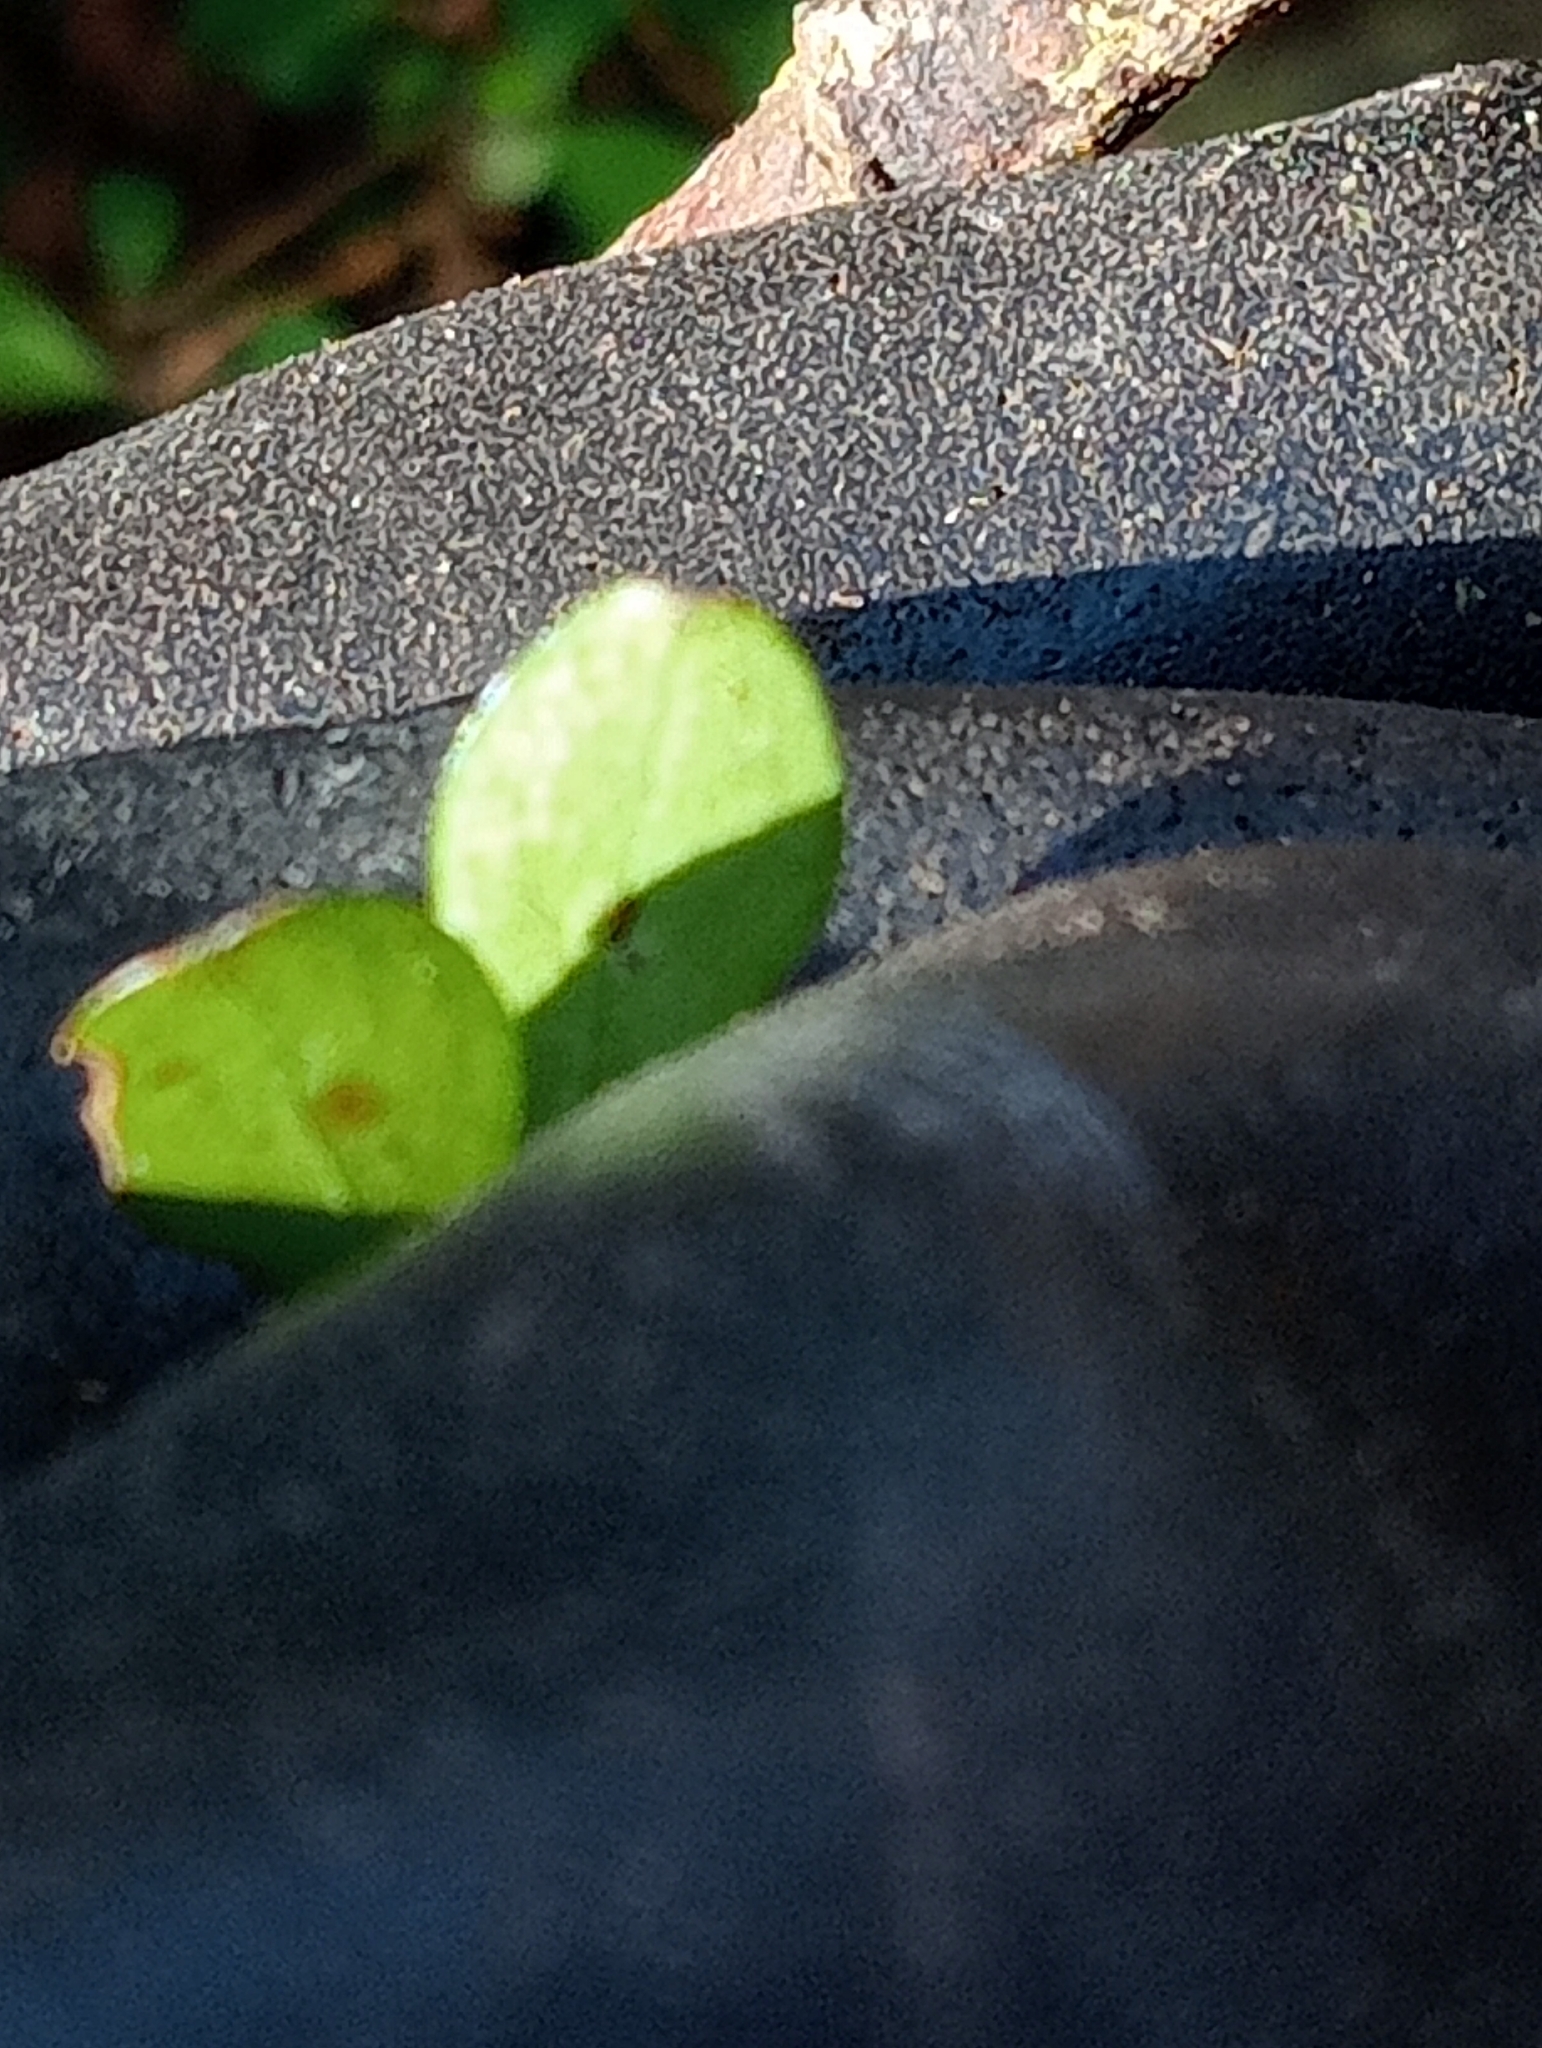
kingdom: Plantae
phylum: Tracheophyta
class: Magnoliopsida
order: Gentianales
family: Rubiaceae
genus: Coprosma
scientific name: Coprosma rigida
